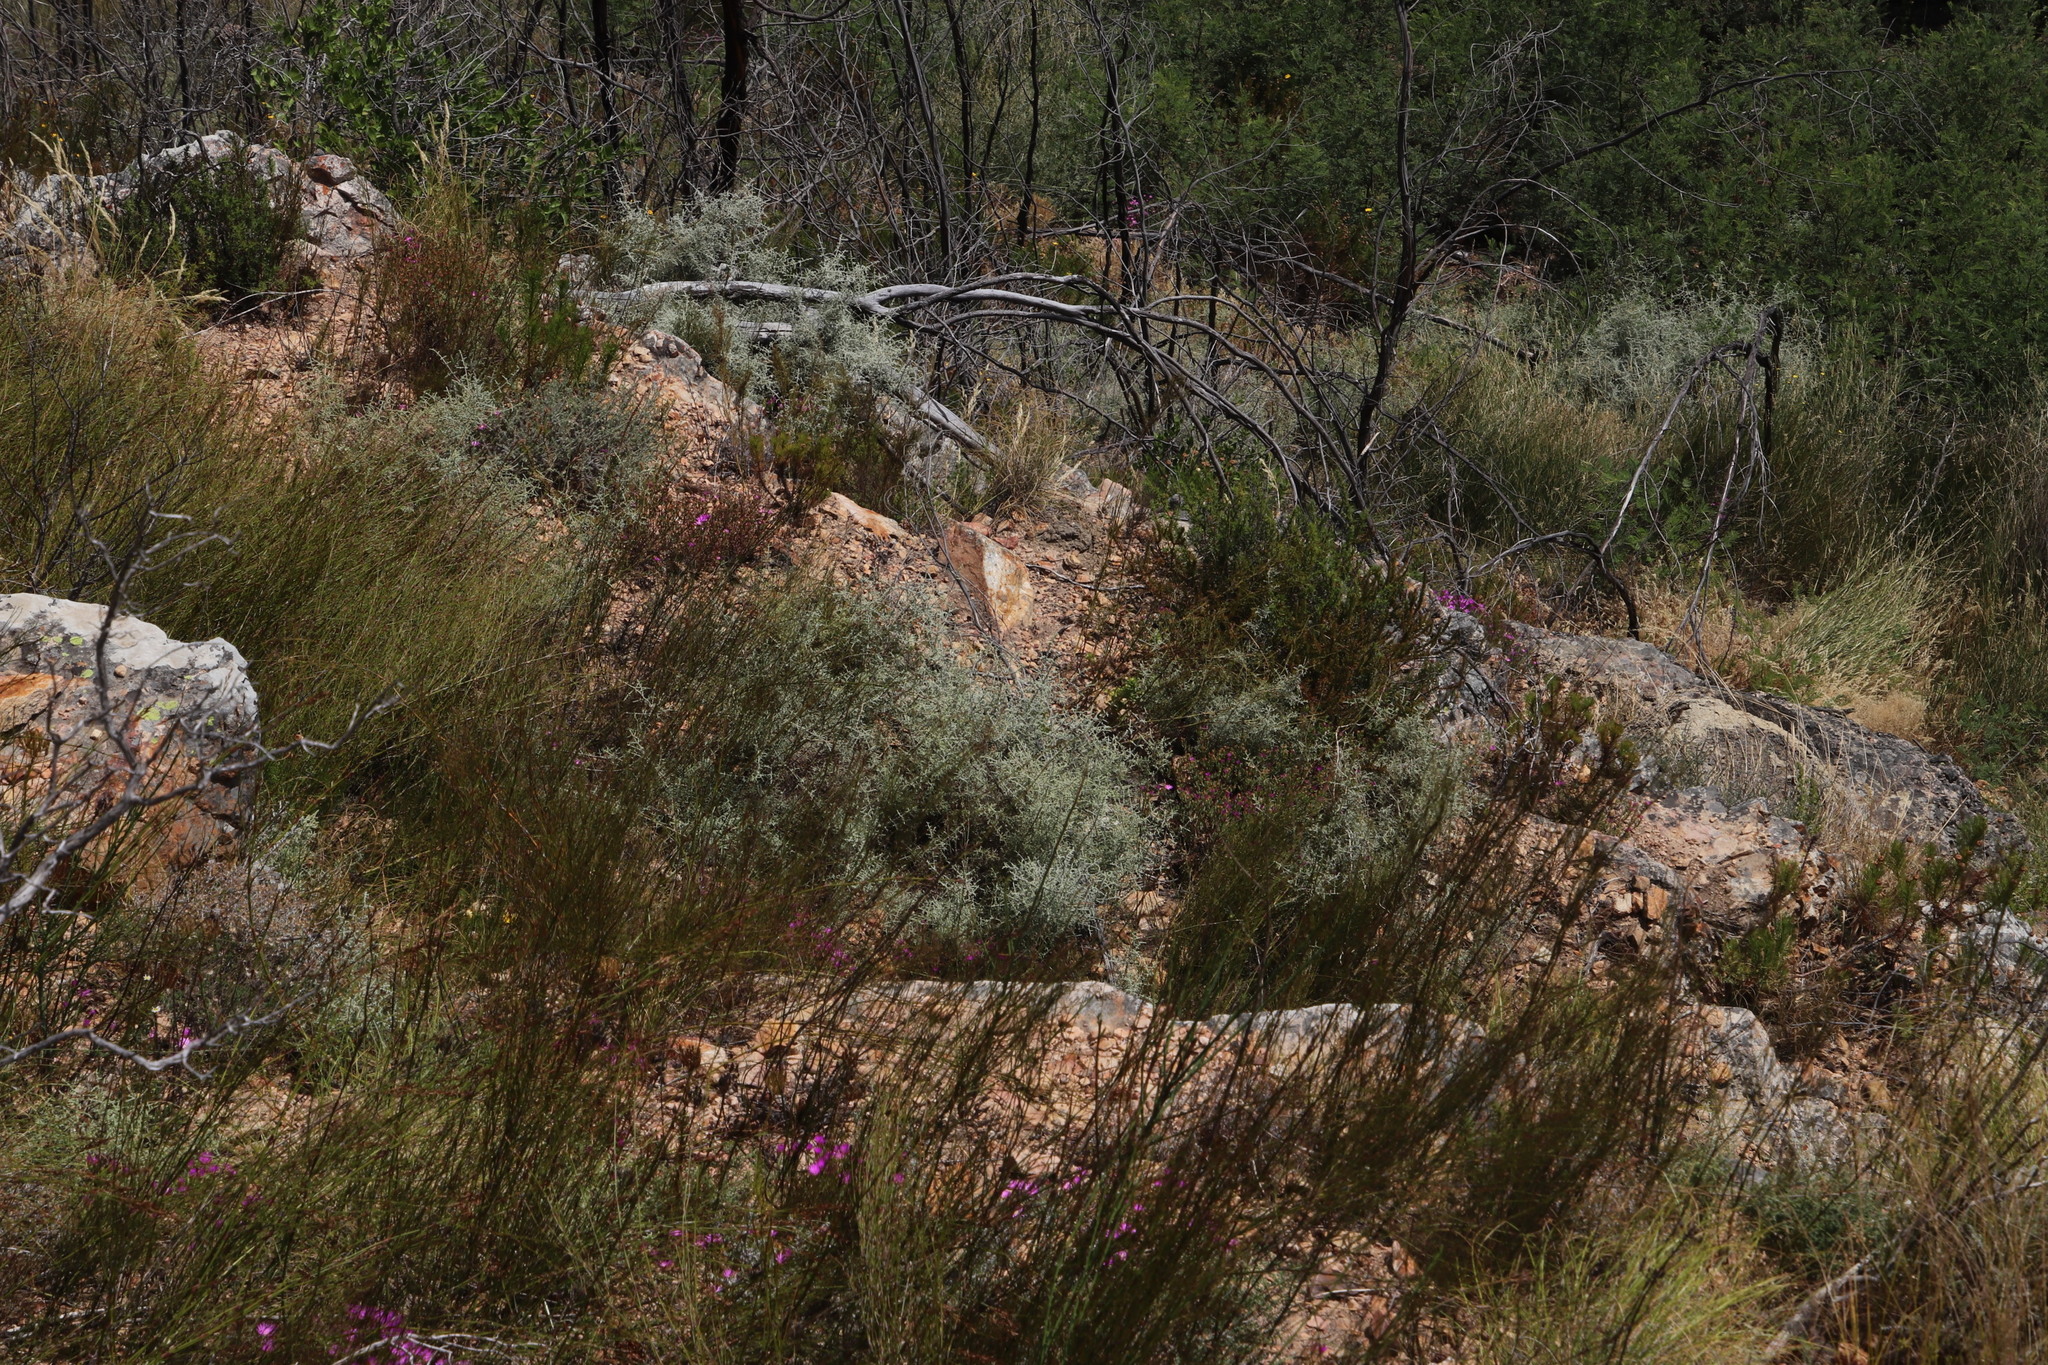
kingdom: Plantae
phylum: Tracheophyta
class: Magnoliopsida
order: Asterales
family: Asteraceae
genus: Seriphium
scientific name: Seriphium plumosum
